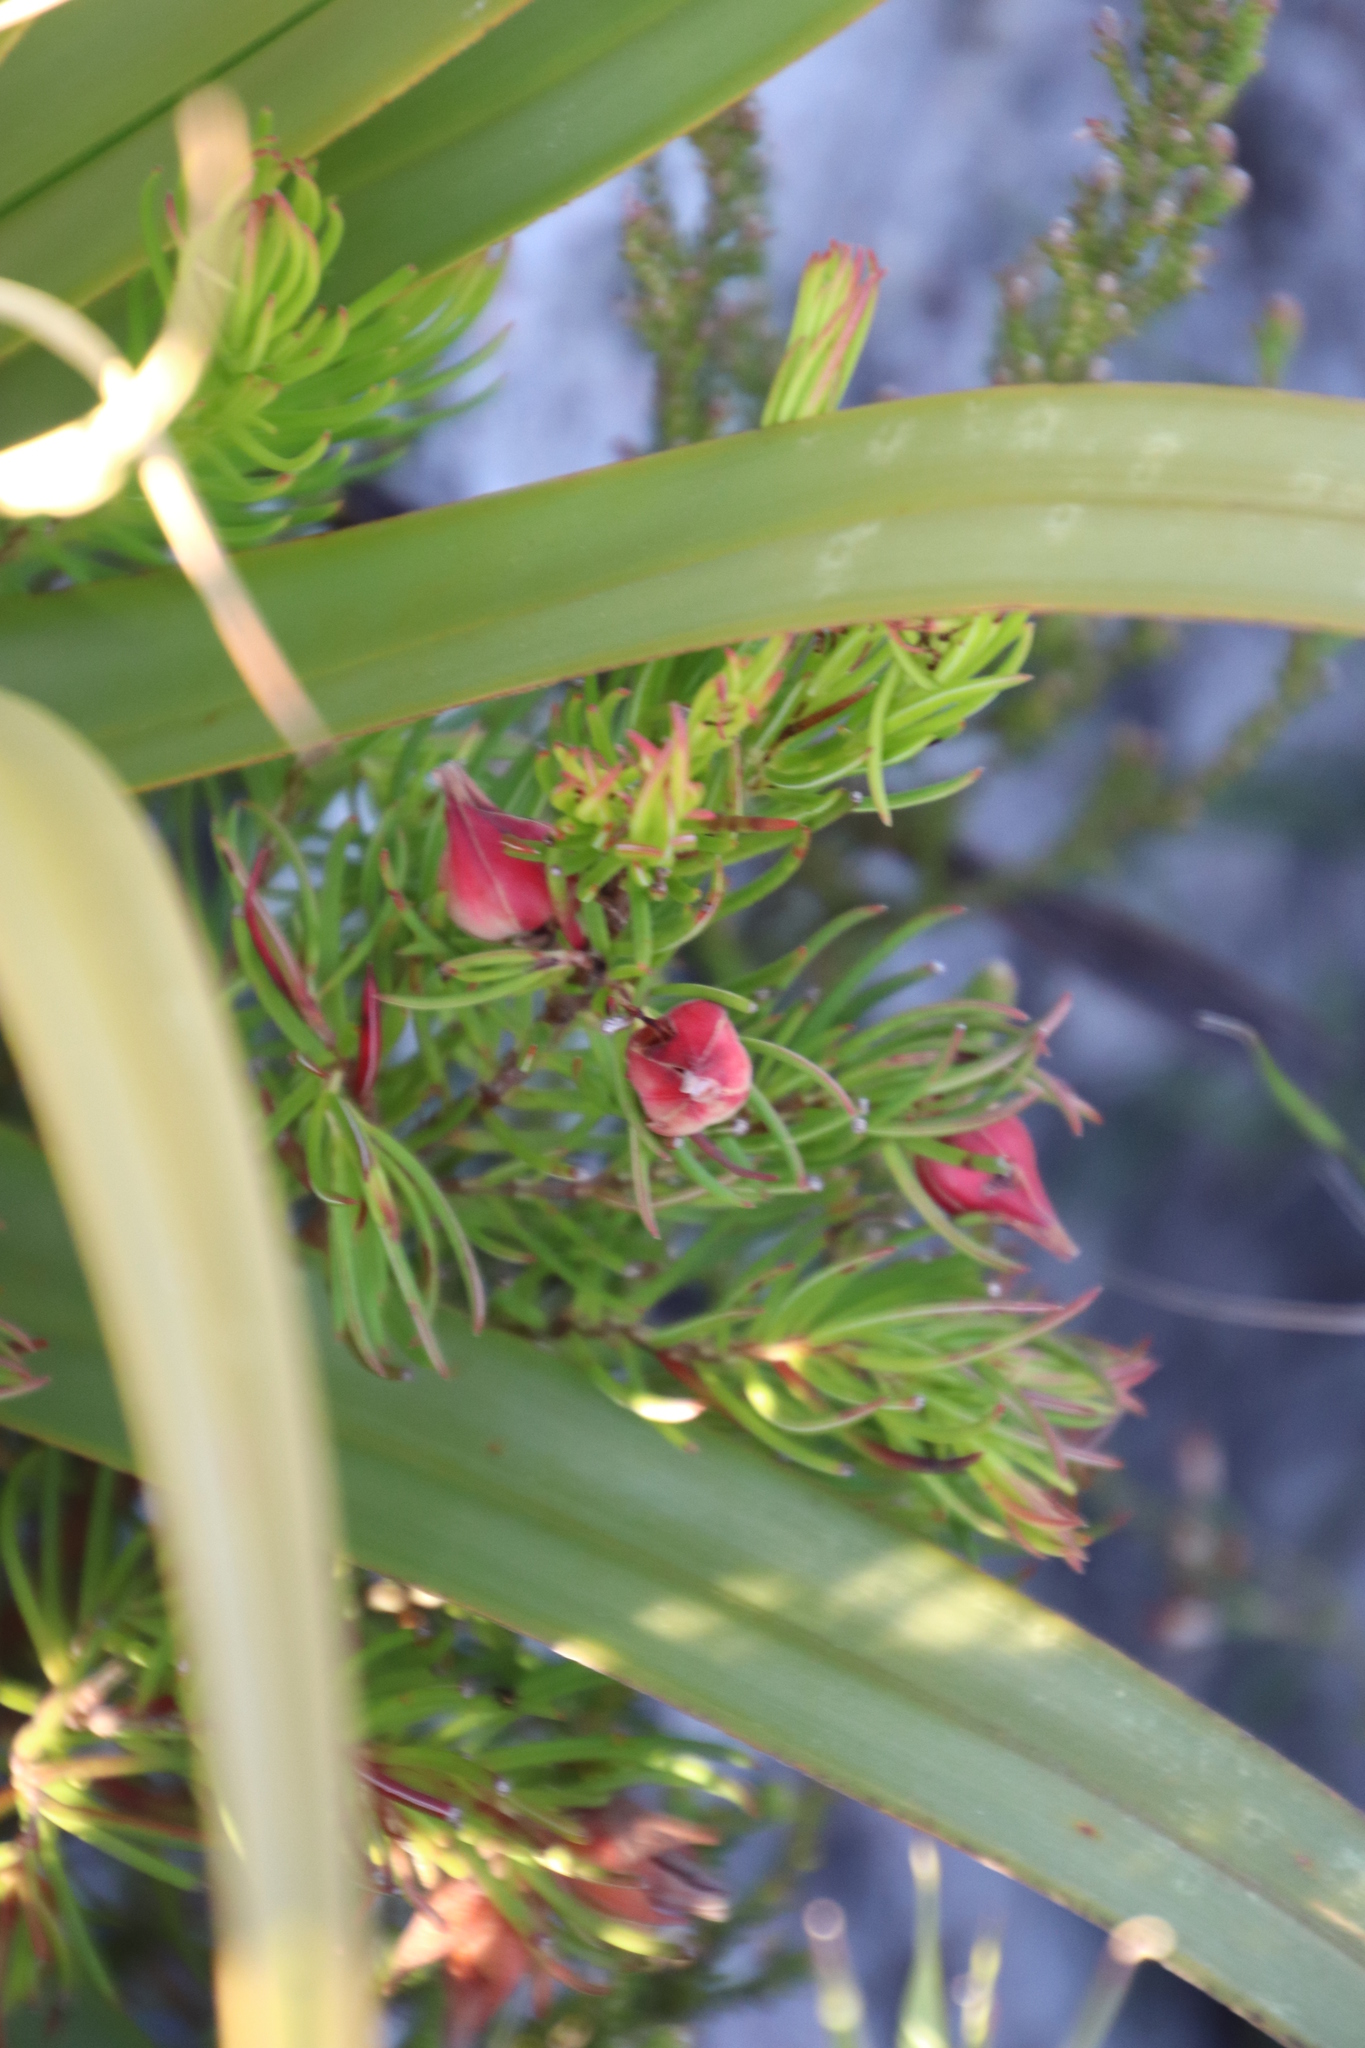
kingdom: Plantae
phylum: Tracheophyta
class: Magnoliopsida
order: Ericales
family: Ericaceae
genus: Erica
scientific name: Erica lanuginosa
